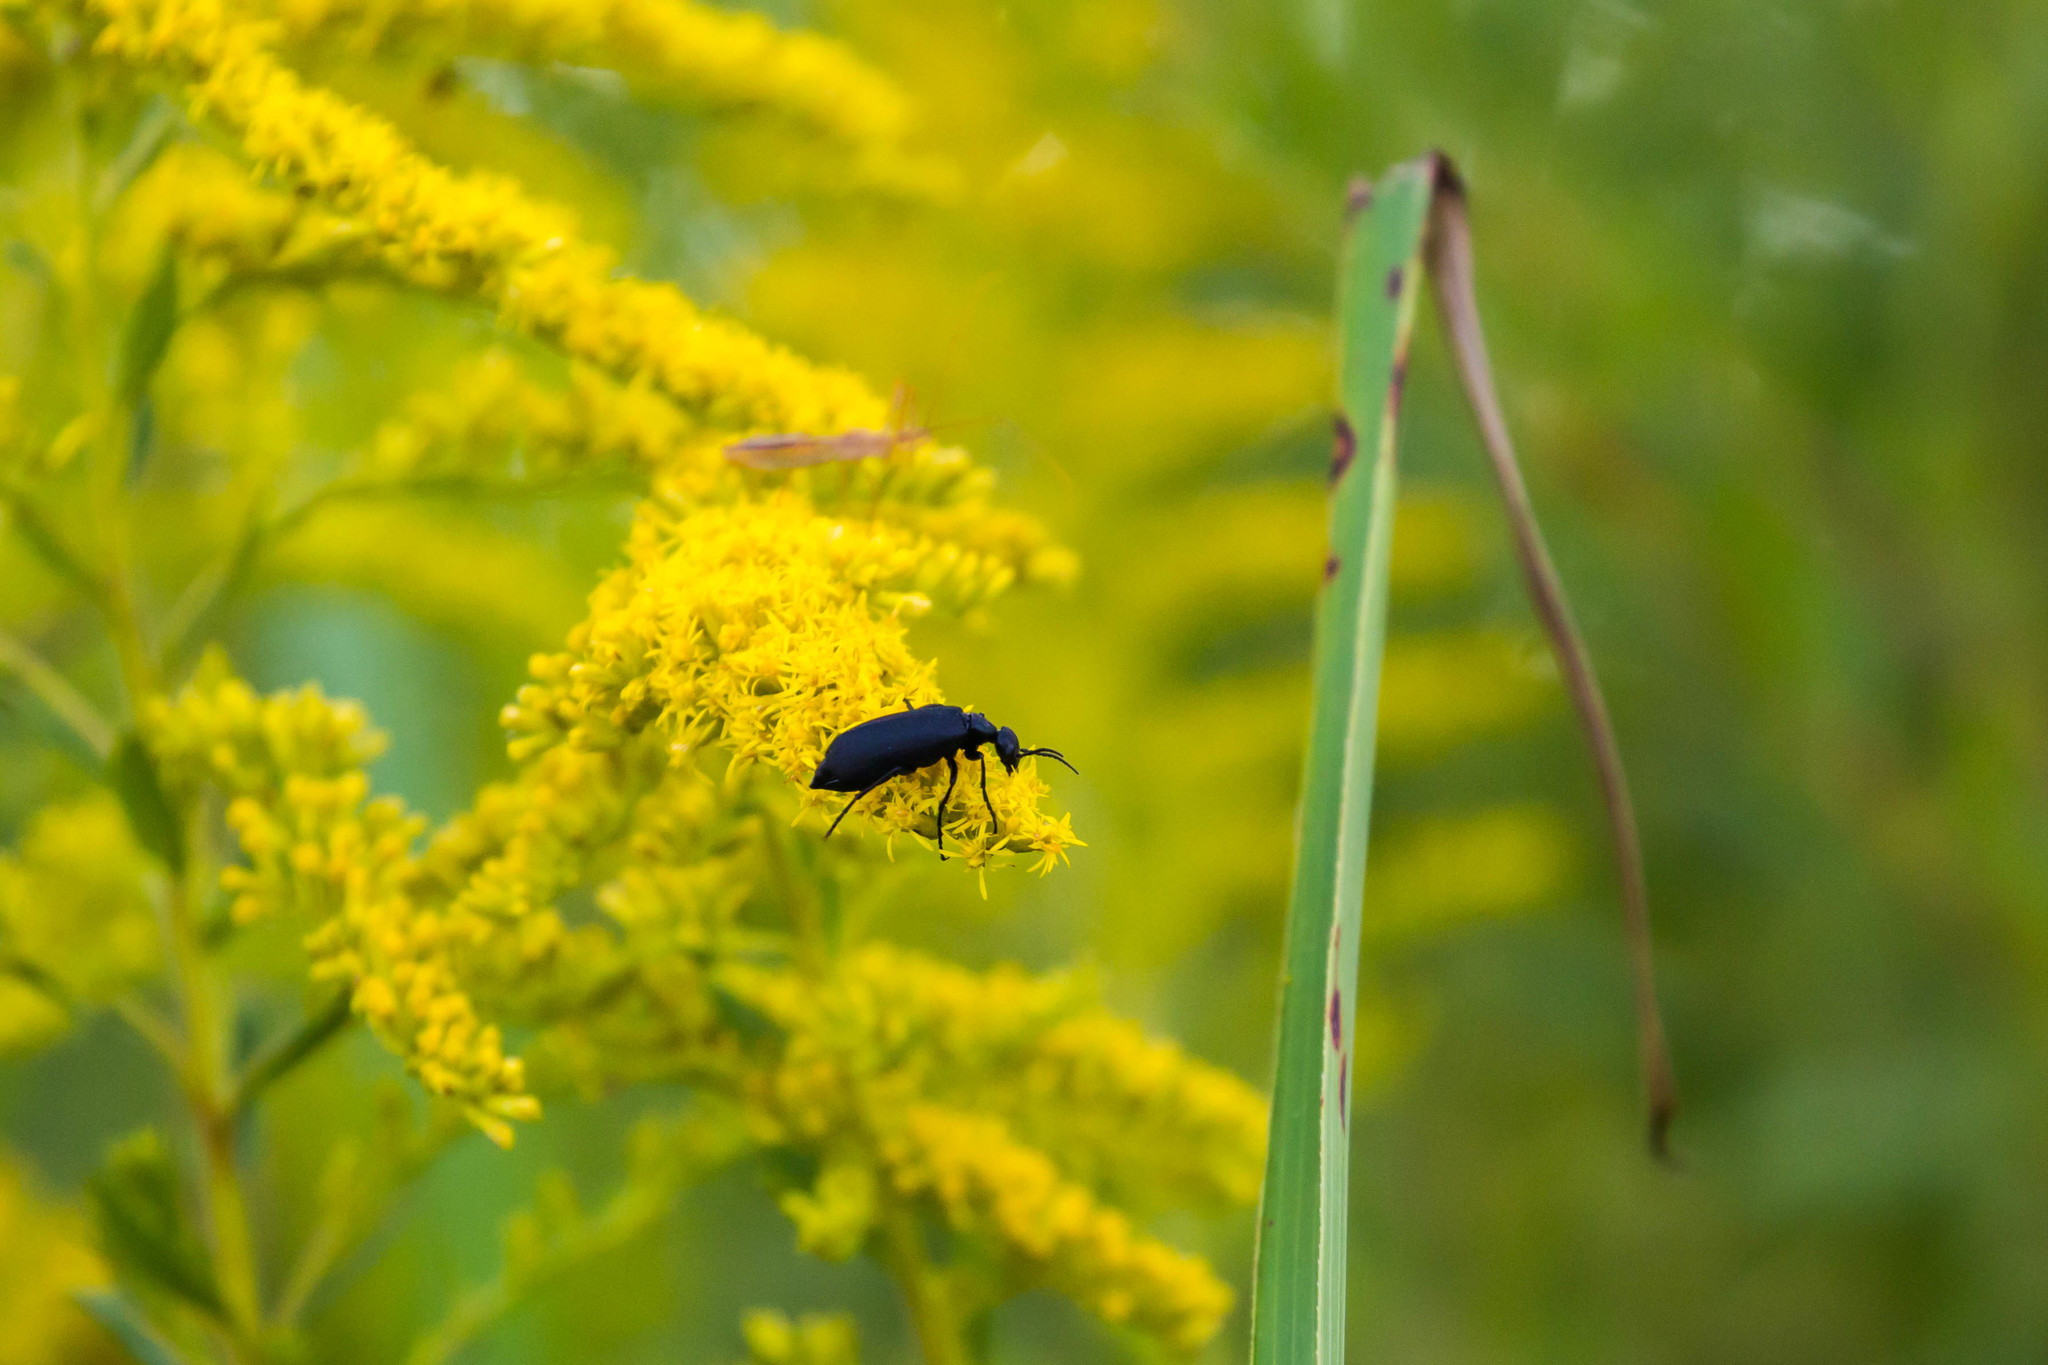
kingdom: Animalia
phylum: Arthropoda
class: Insecta
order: Coleoptera
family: Meloidae
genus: Epicauta
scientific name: Epicauta pensylvanica
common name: Black blister beetle
